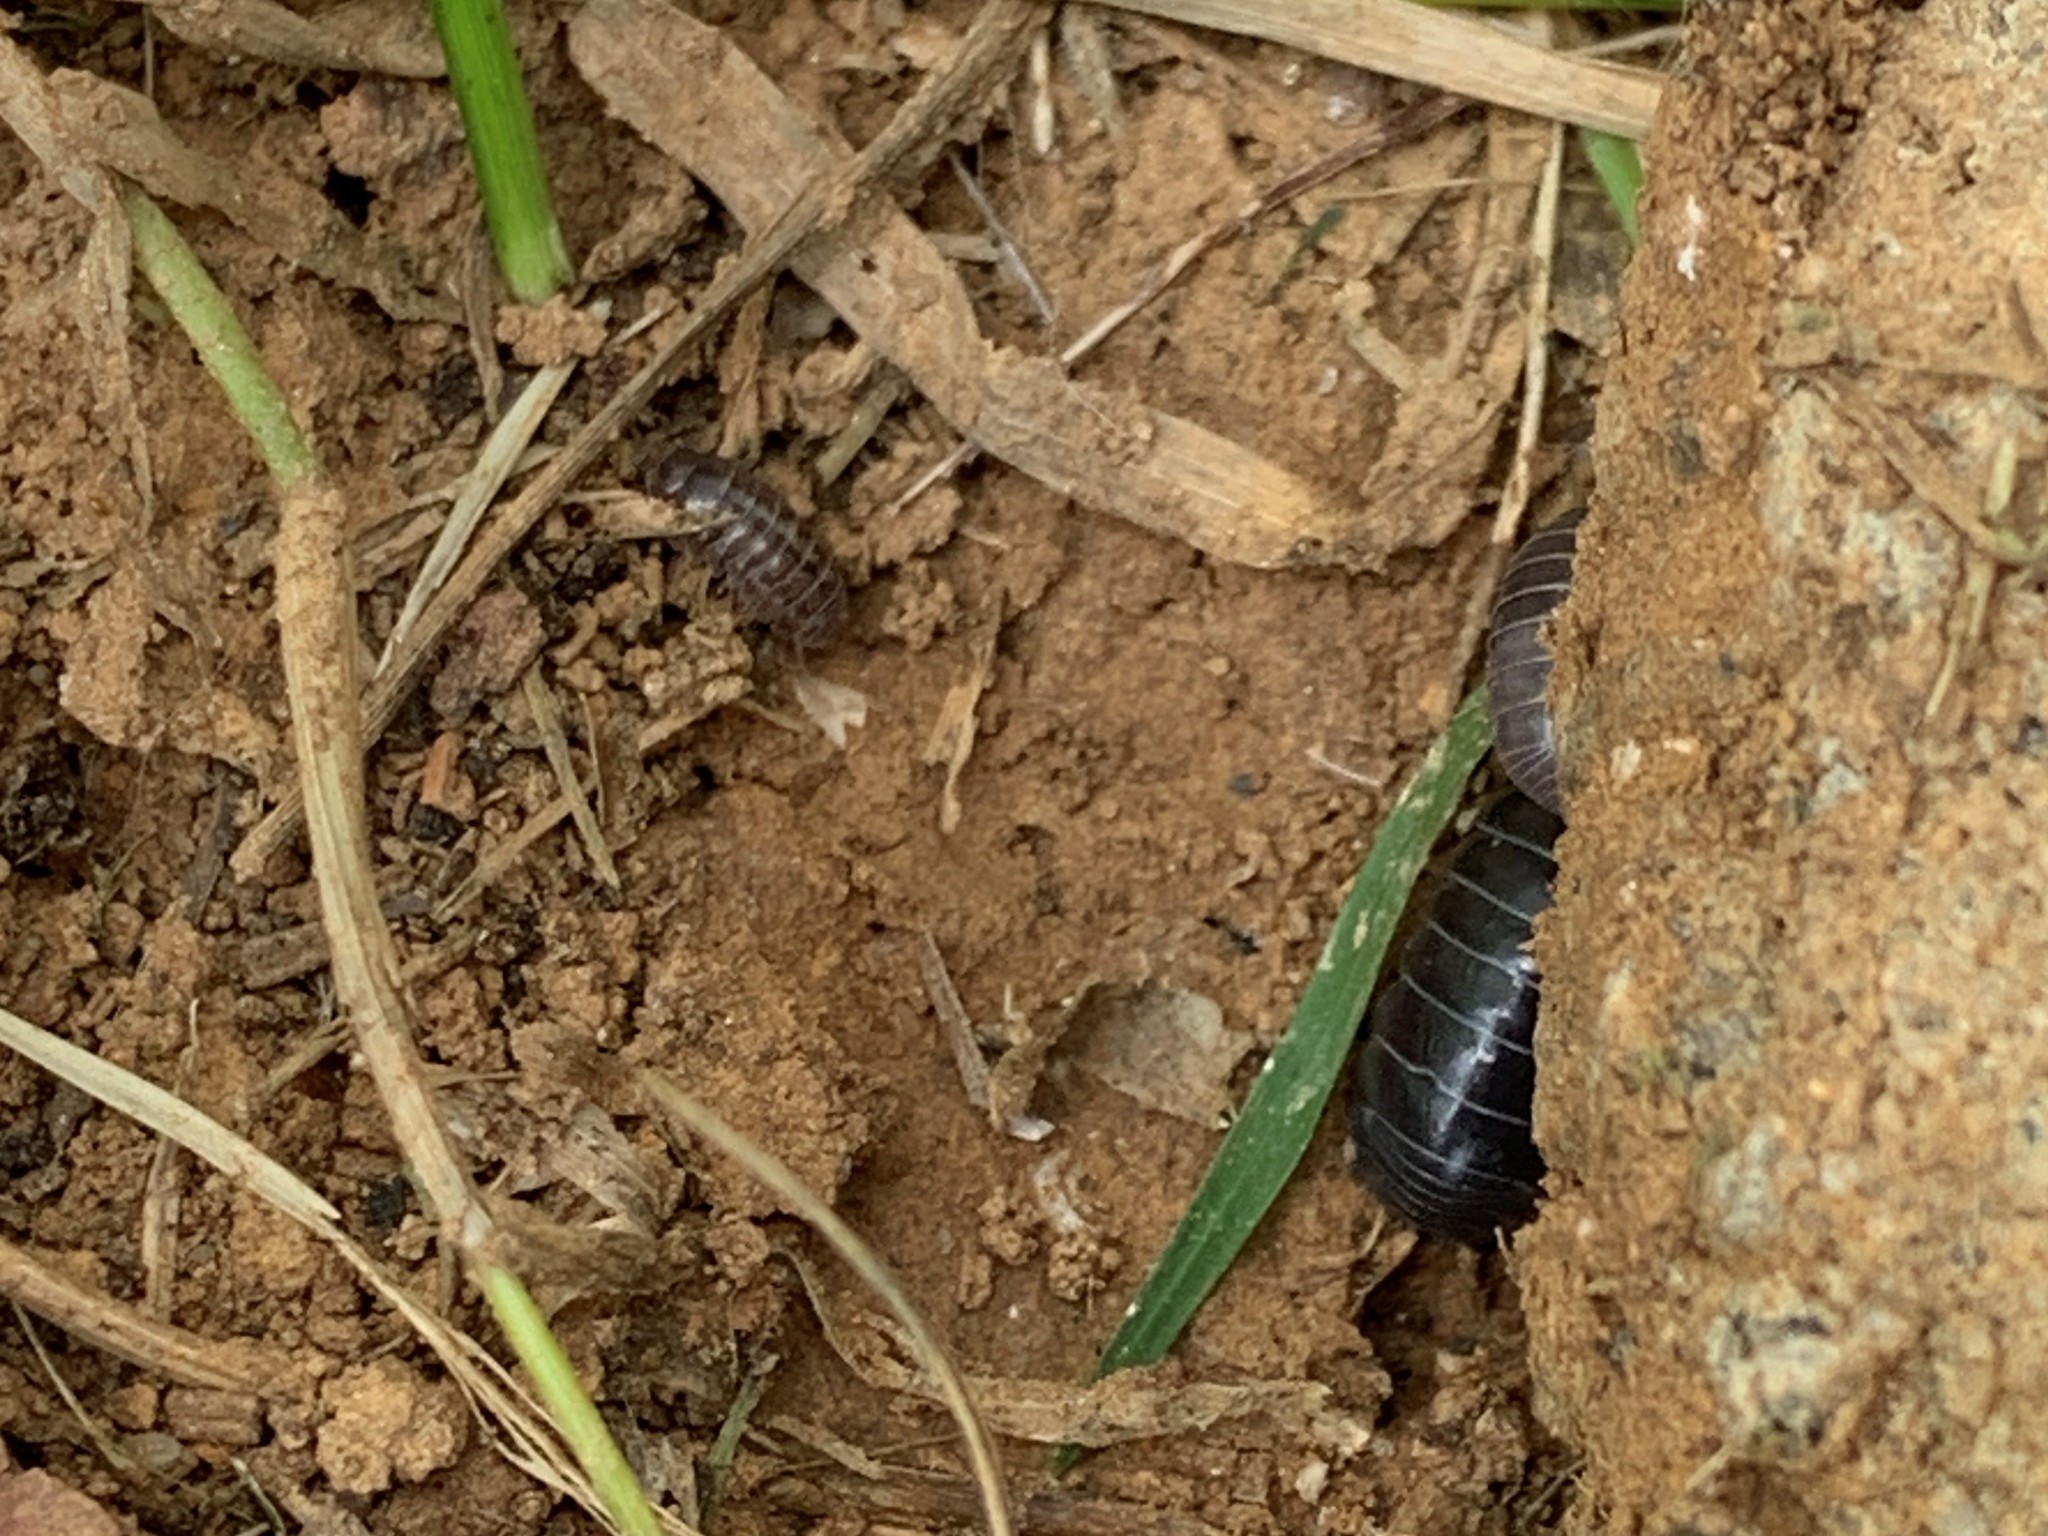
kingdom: Animalia
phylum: Arthropoda
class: Malacostraca
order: Isopoda
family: Armadillidiidae
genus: Armadillidium
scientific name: Armadillidium vulgare
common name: Common pill woodlouse
